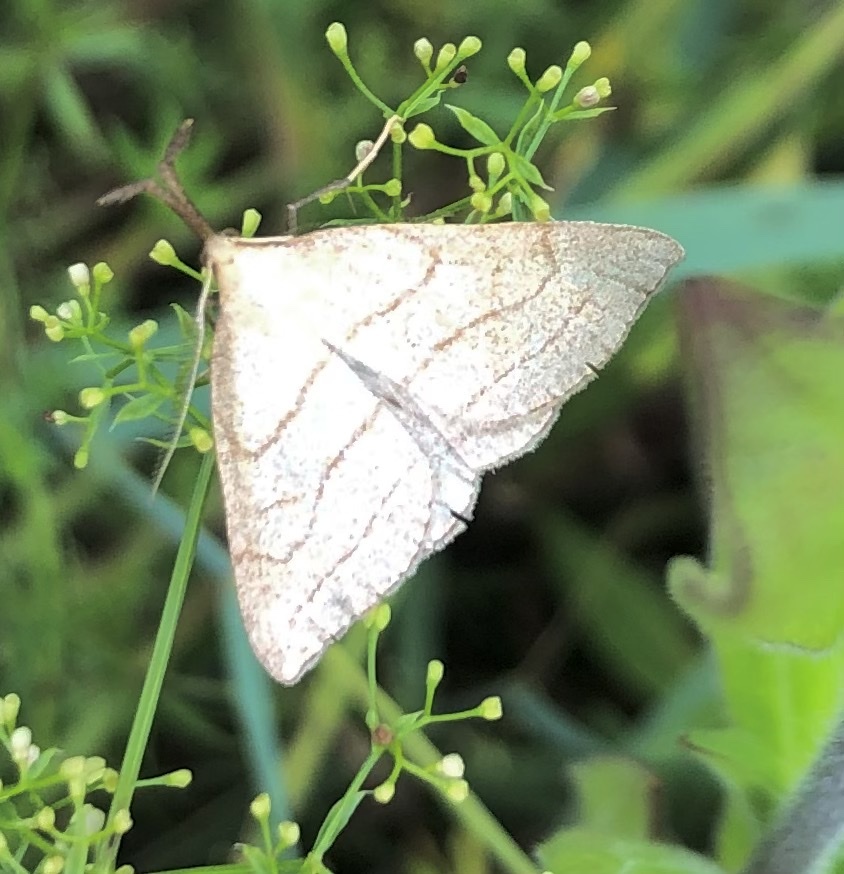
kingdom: Animalia
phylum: Arthropoda
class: Insecta
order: Lepidoptera
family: Erebidae
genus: Polypogon
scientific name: Polypogon tentacularia
